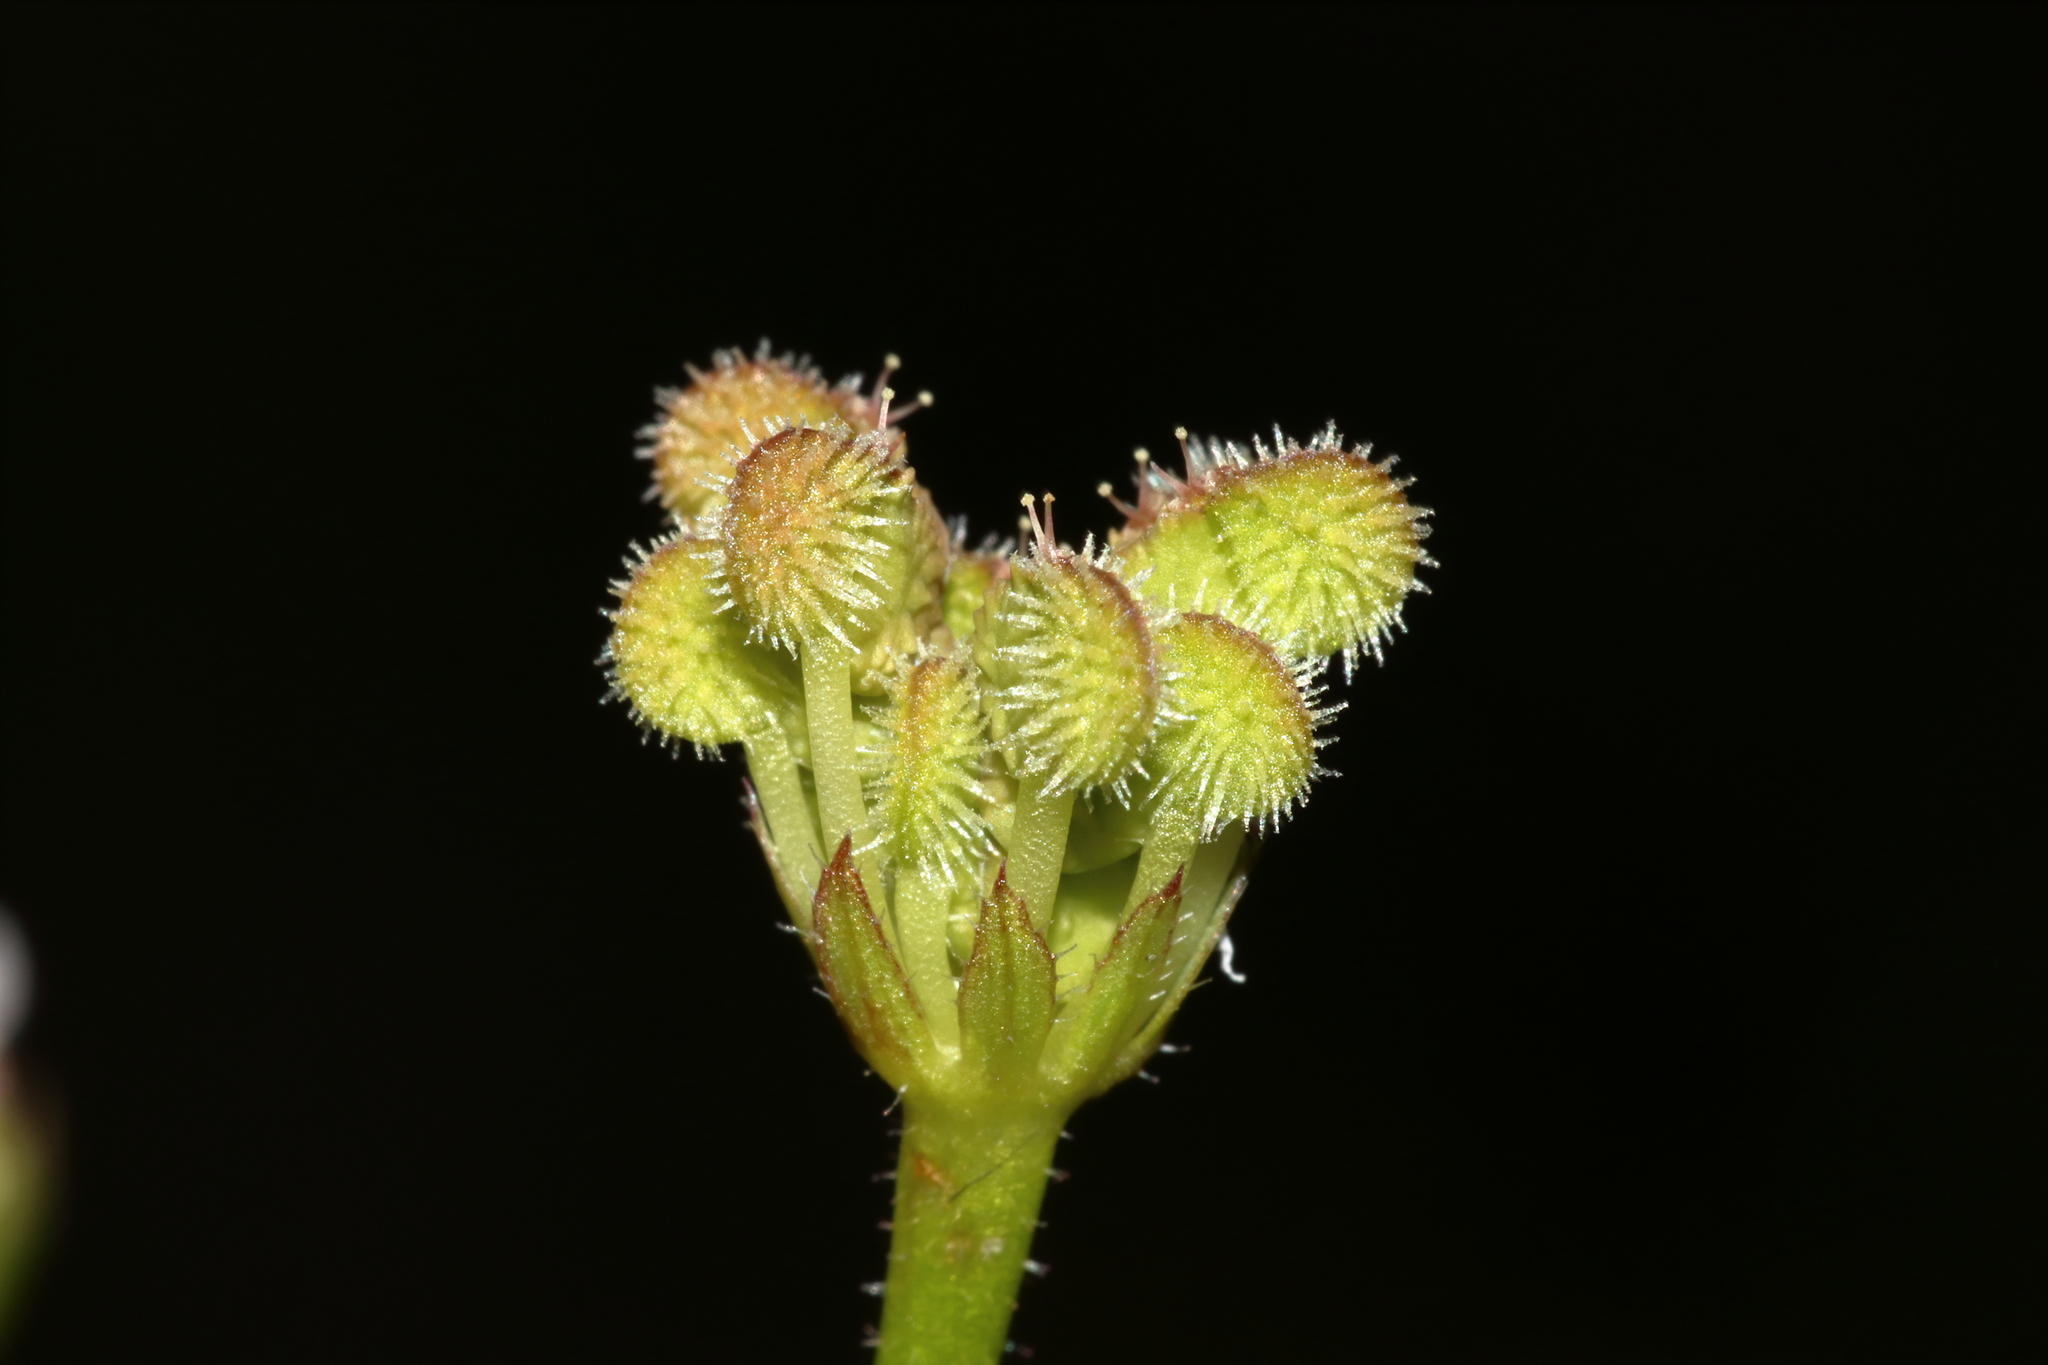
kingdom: Plantae
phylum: Tracheophyta
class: Magnoliopsida
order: Apiales
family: Araliaceae
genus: Trachymene
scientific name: Trachymene pilosa
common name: Dwarf trachymene
